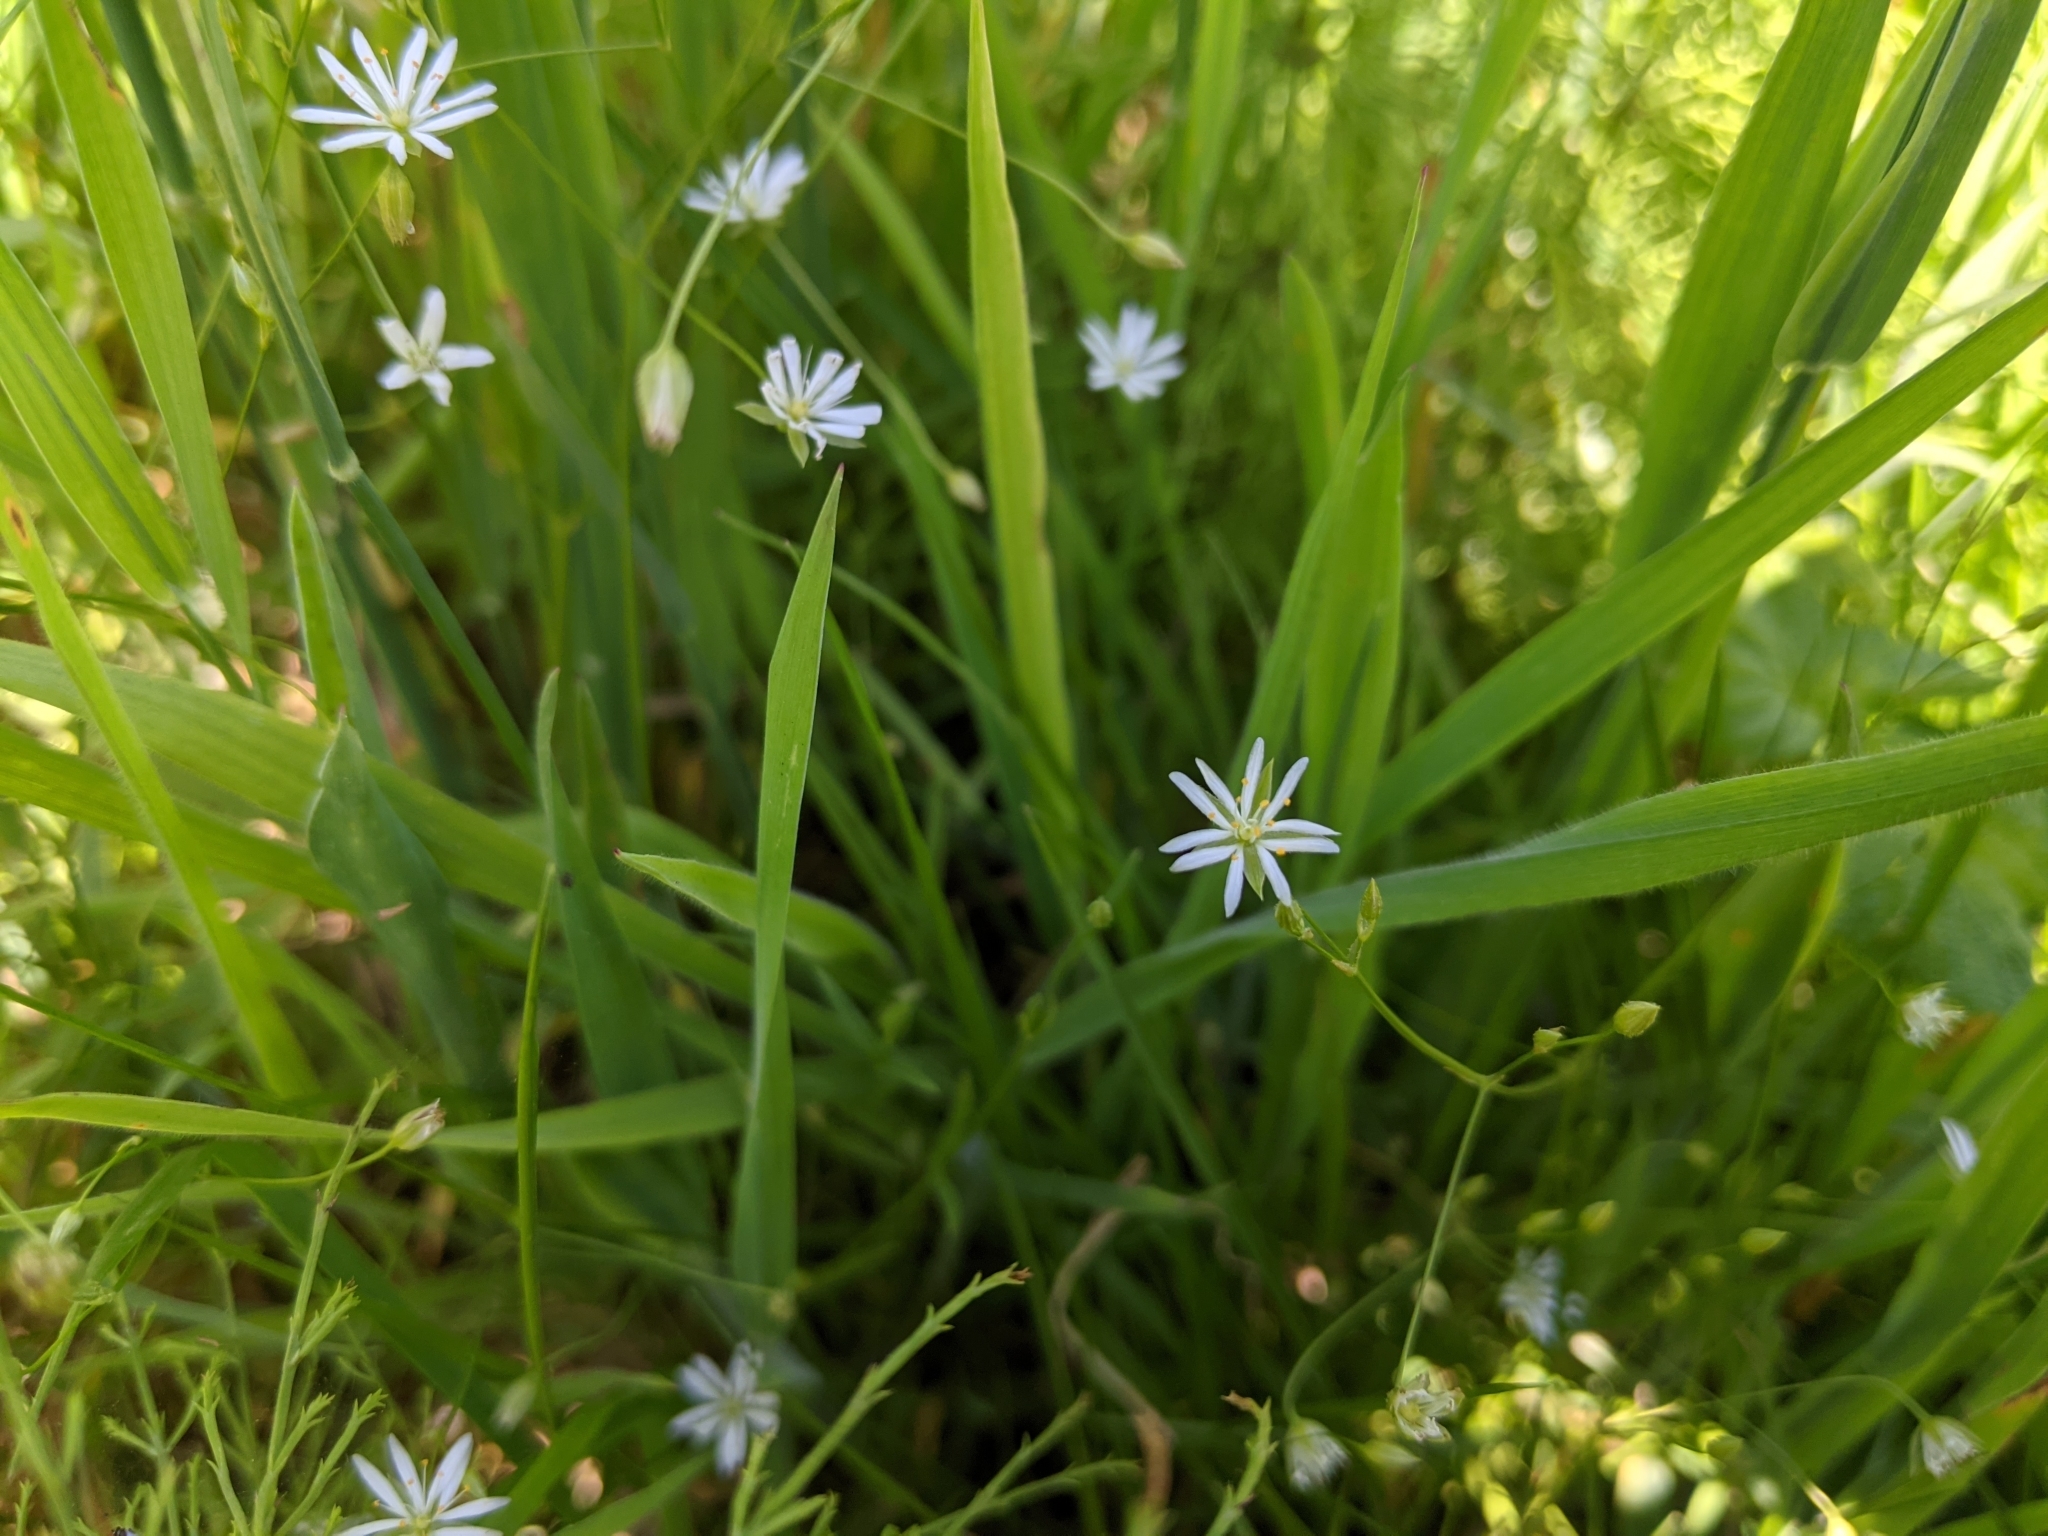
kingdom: Plantae
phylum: Tracheophyta
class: Magnoliopsida
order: Caryophyllales
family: Caryophyllaceae
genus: Stellaria
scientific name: Stellaria graminea
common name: Grass-like starwort
